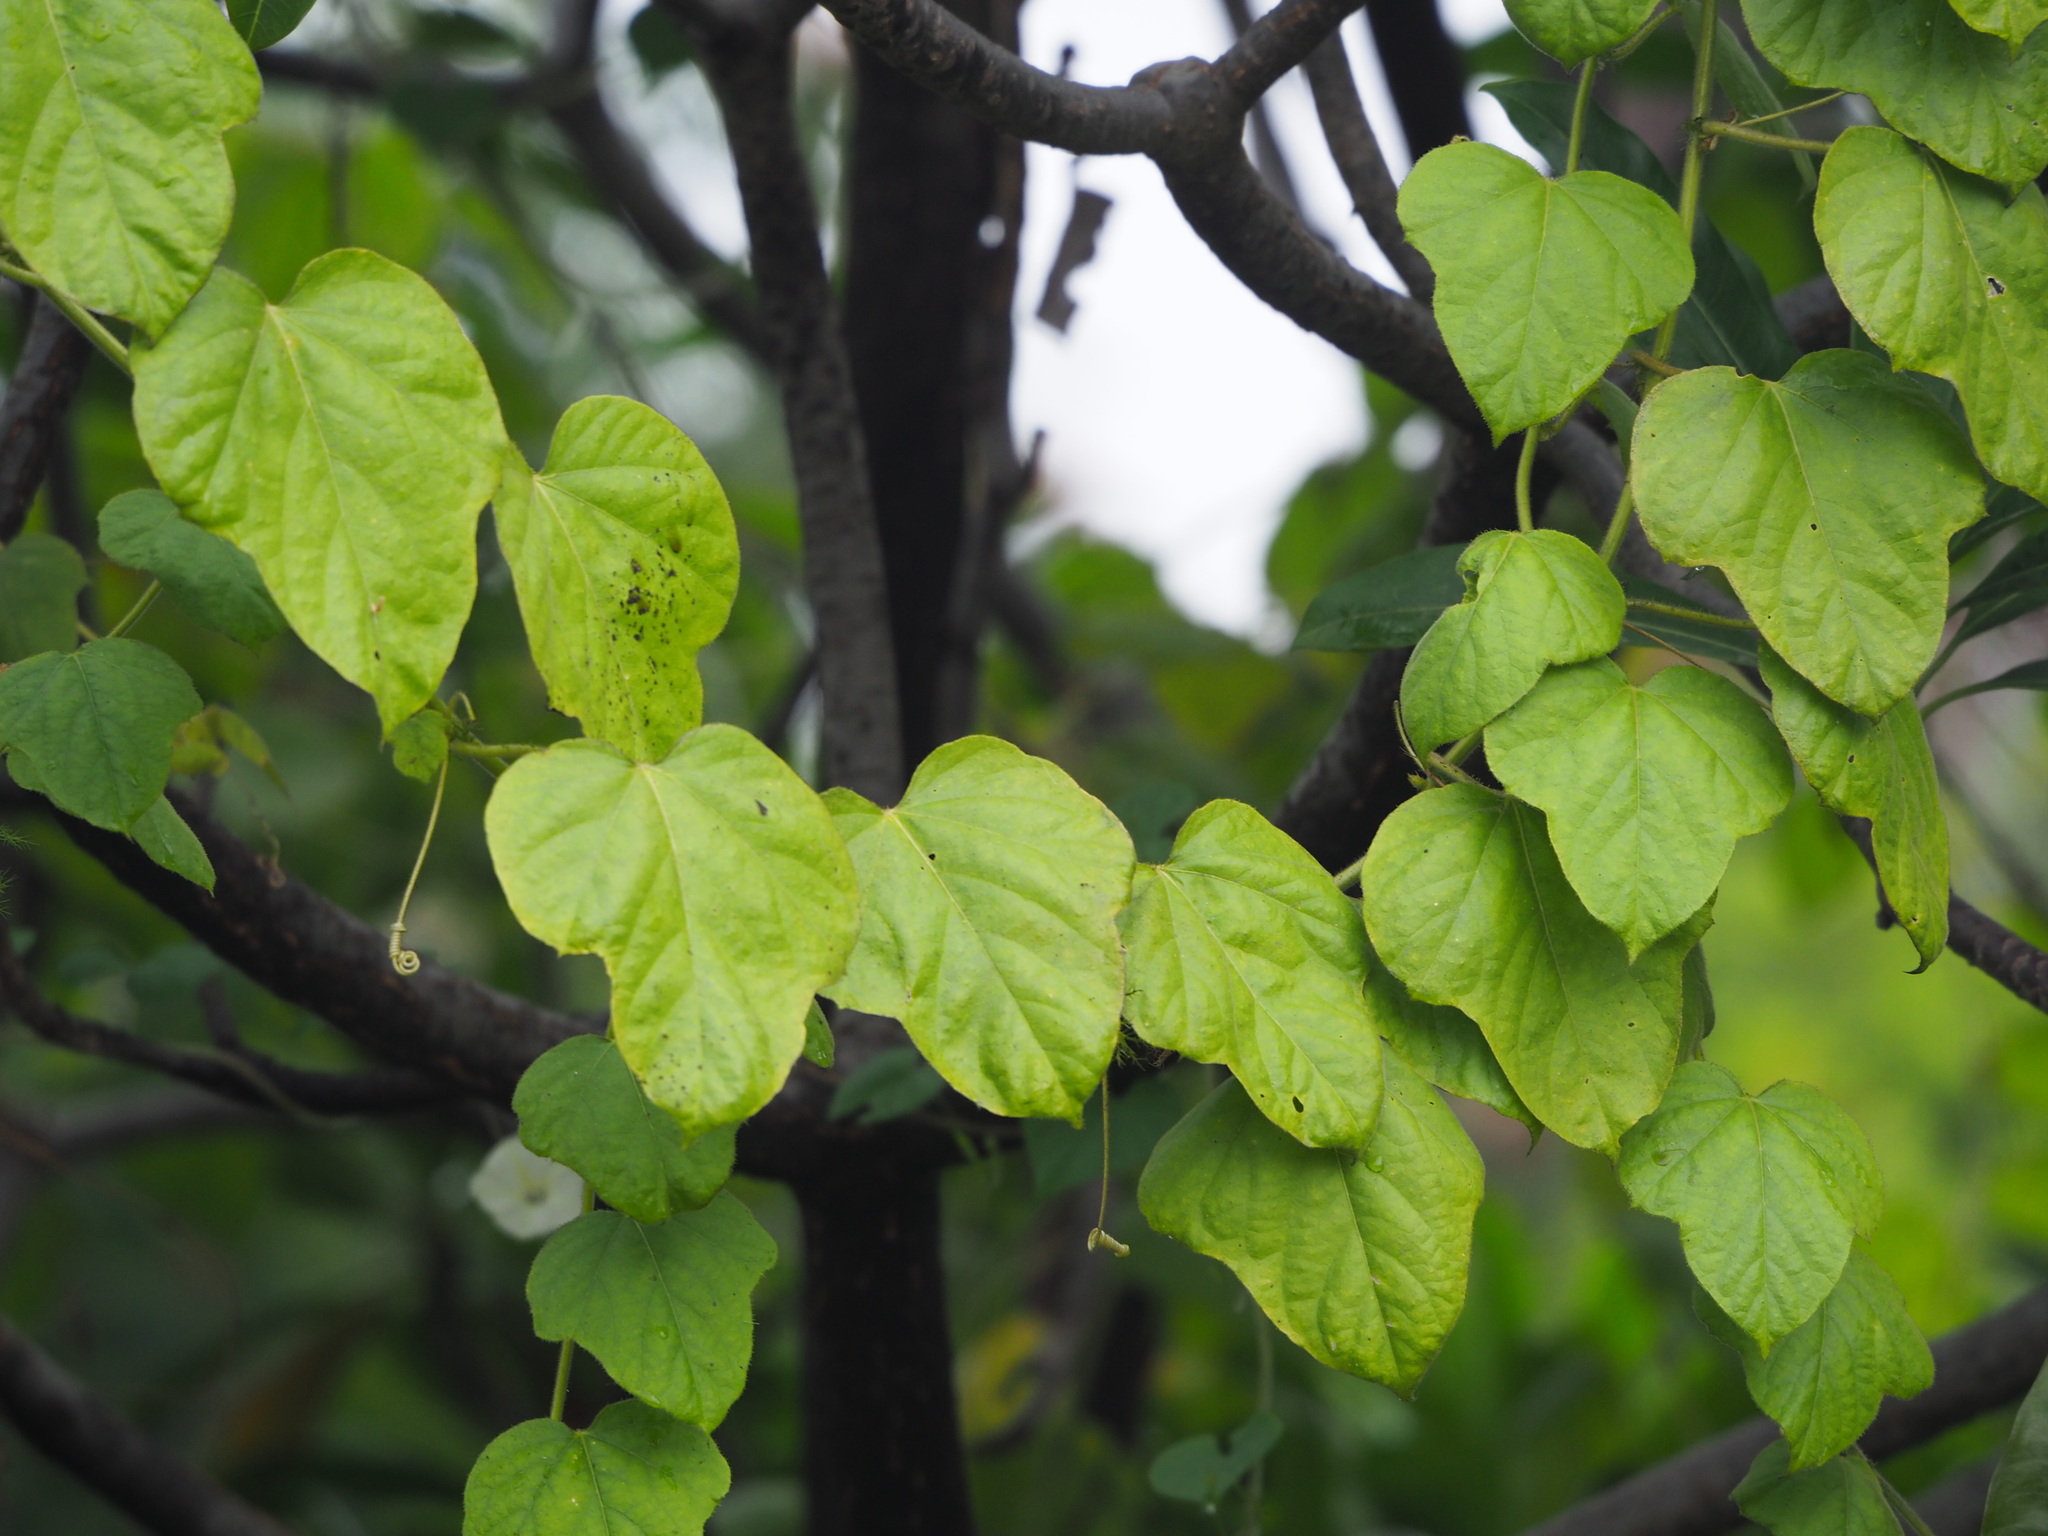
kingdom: Plantae
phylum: Tracheophyta
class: Magnoliopsida
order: Malpighiales
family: Passifloraceae
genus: Passiflora
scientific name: Passiflora vesicaria
